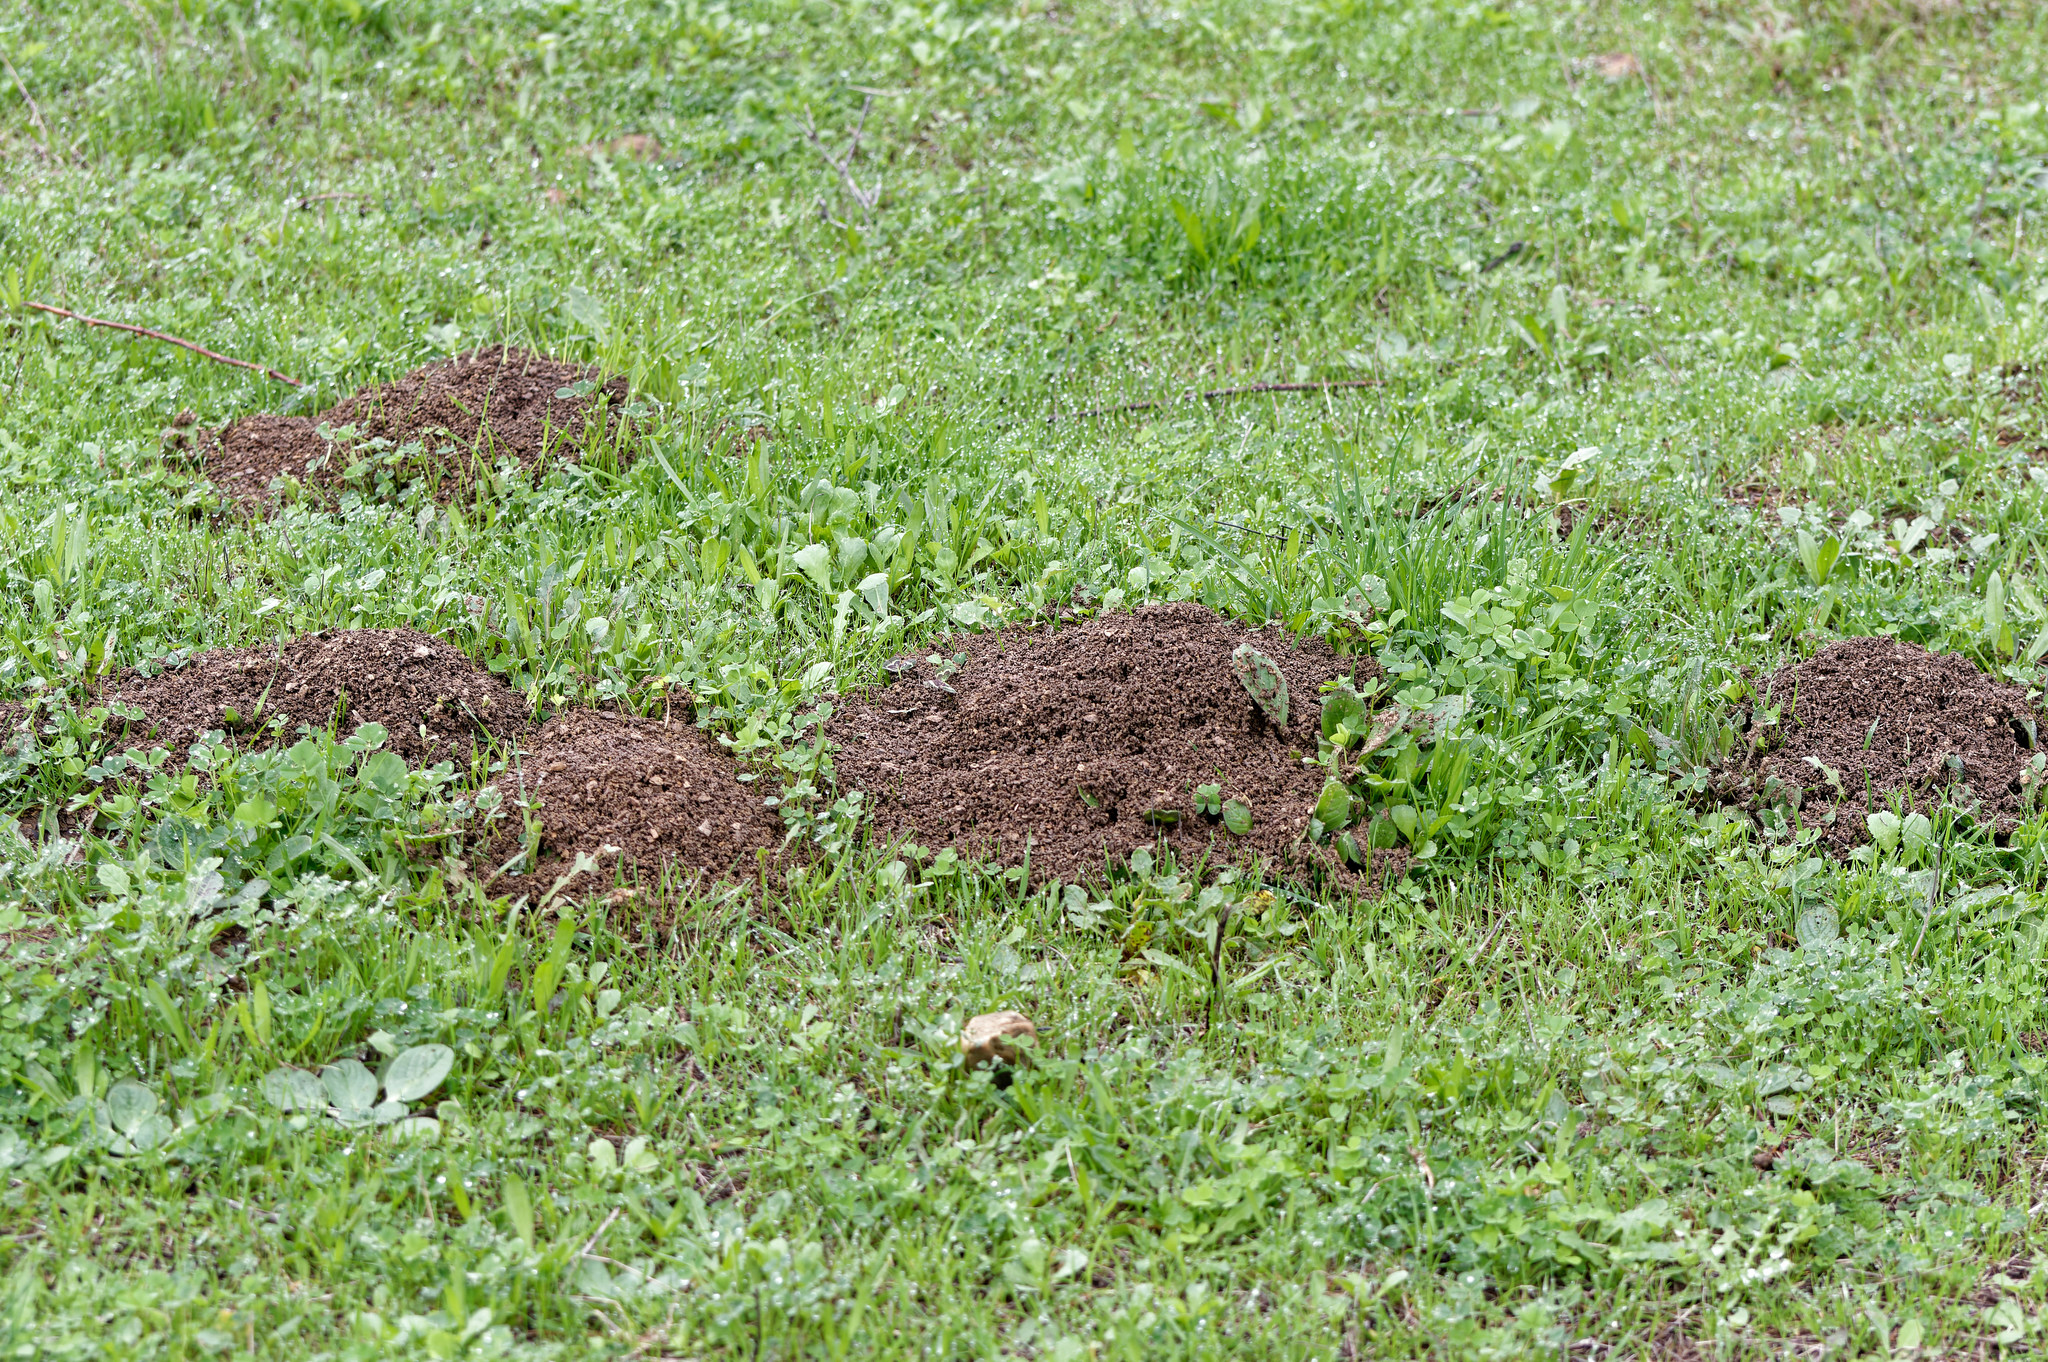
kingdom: Animalia
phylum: Chordata
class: Mammalia
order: Soricomorpha
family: Talpidae
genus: Talpa
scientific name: Talpa occidentalis
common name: Iberian mole
